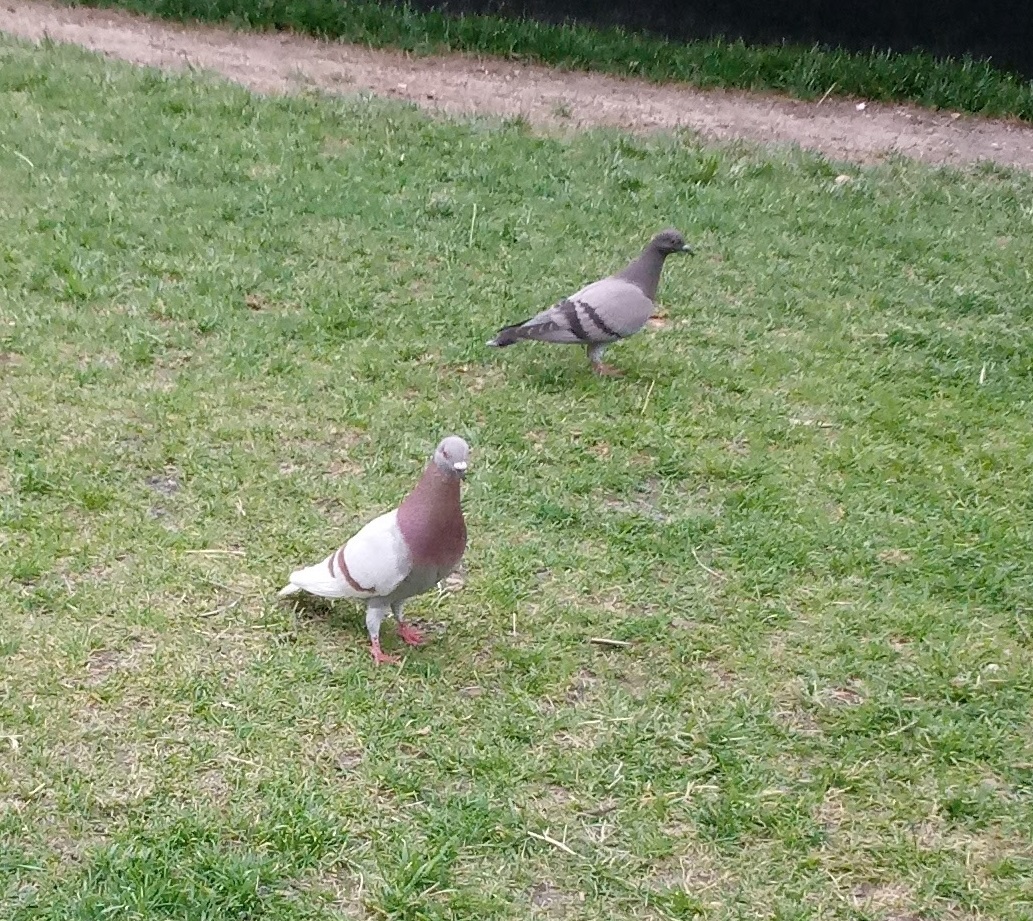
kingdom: Animalia
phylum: Chordata
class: Aves
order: Columbiformes
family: Columbidae
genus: Columba
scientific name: Columba livia
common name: Rock pigeon
